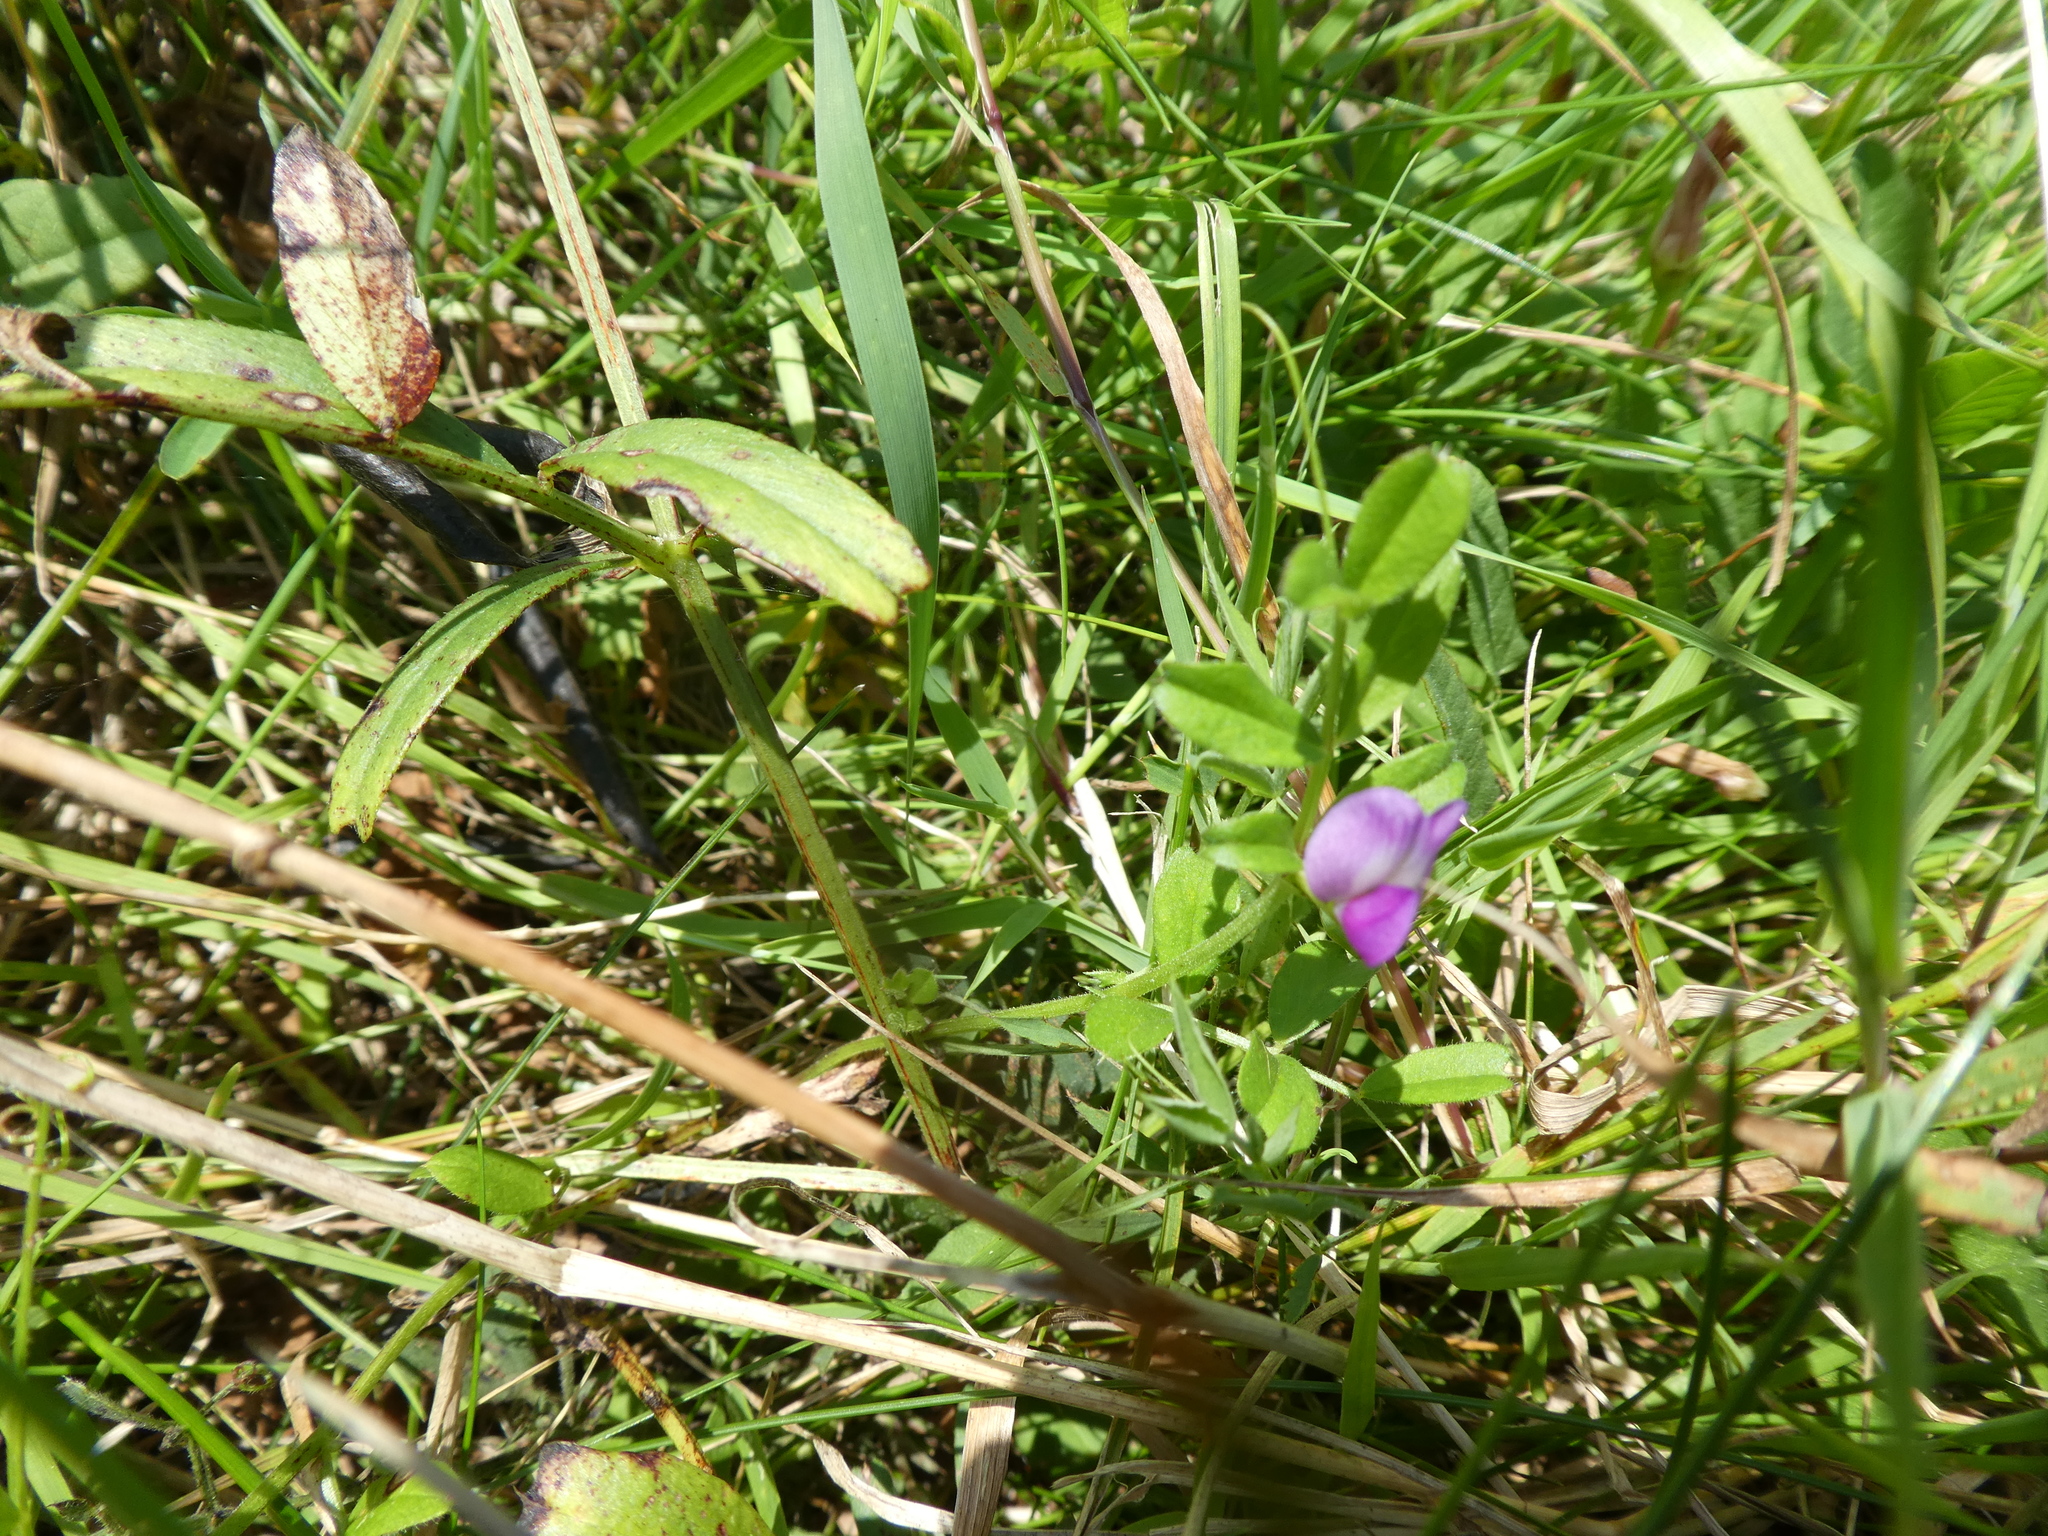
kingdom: Plantae
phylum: Tracheophyta
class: Magnoliopsida
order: Fabales
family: Fabaceae
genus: Vicia
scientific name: Vicia sativa
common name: Garden vetch
